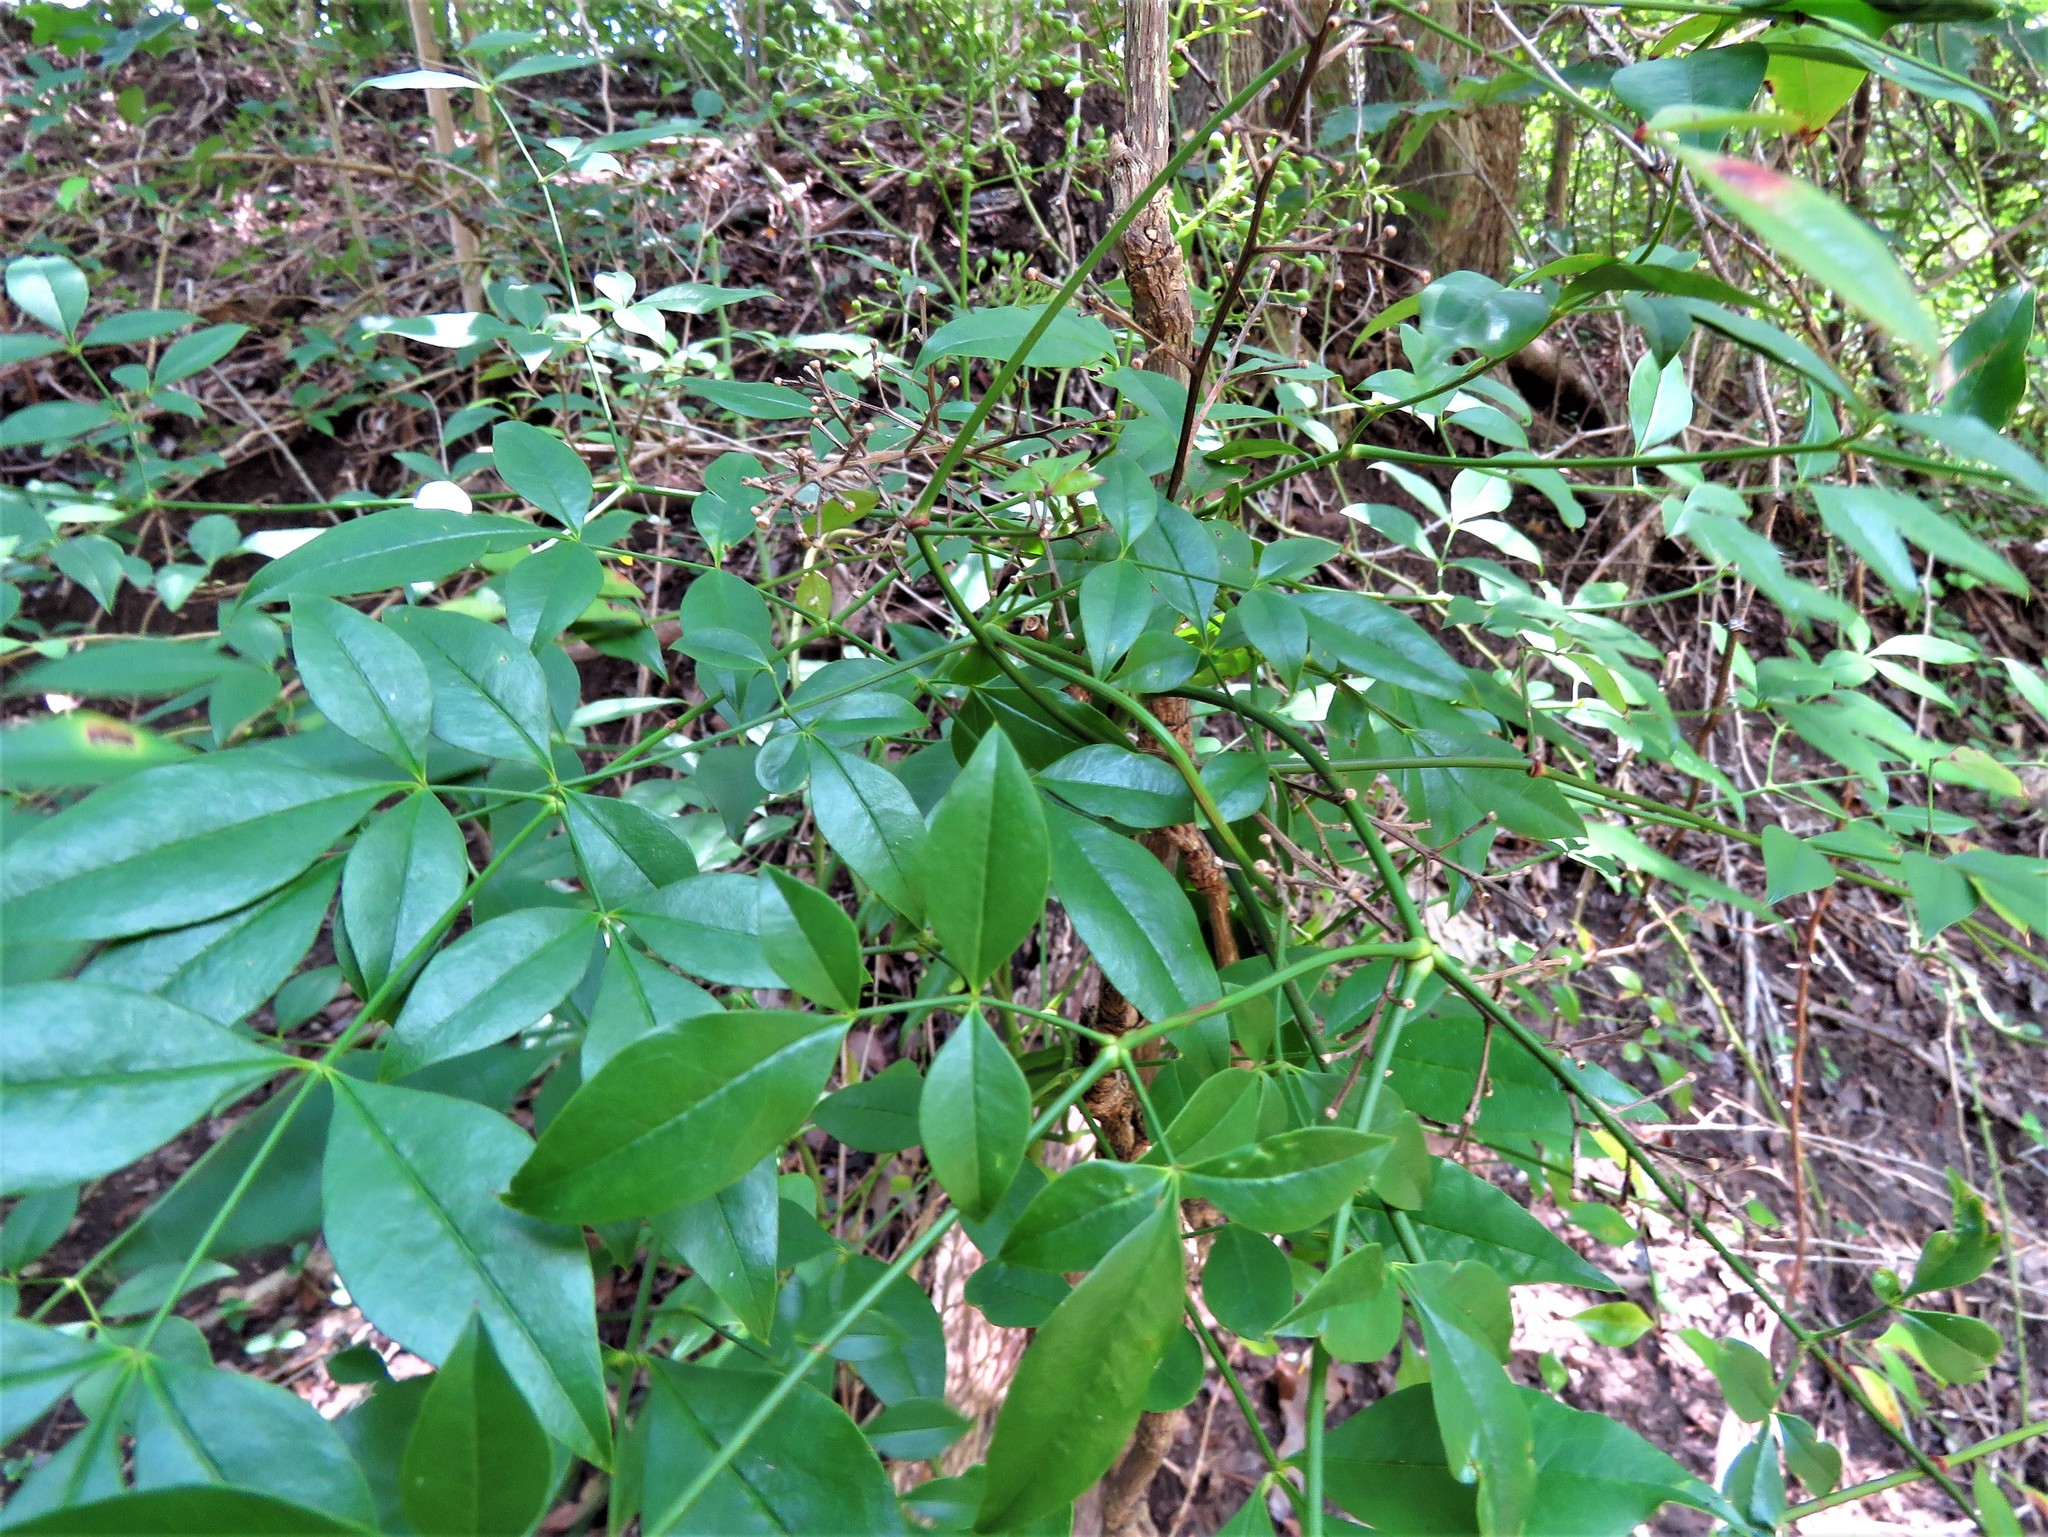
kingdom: Plantae
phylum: Tracheophyta
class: Magnoliopsida
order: Ranunculales
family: Berberidaceae
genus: Nandina
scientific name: Nandina domestica
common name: Sacred bamboo
